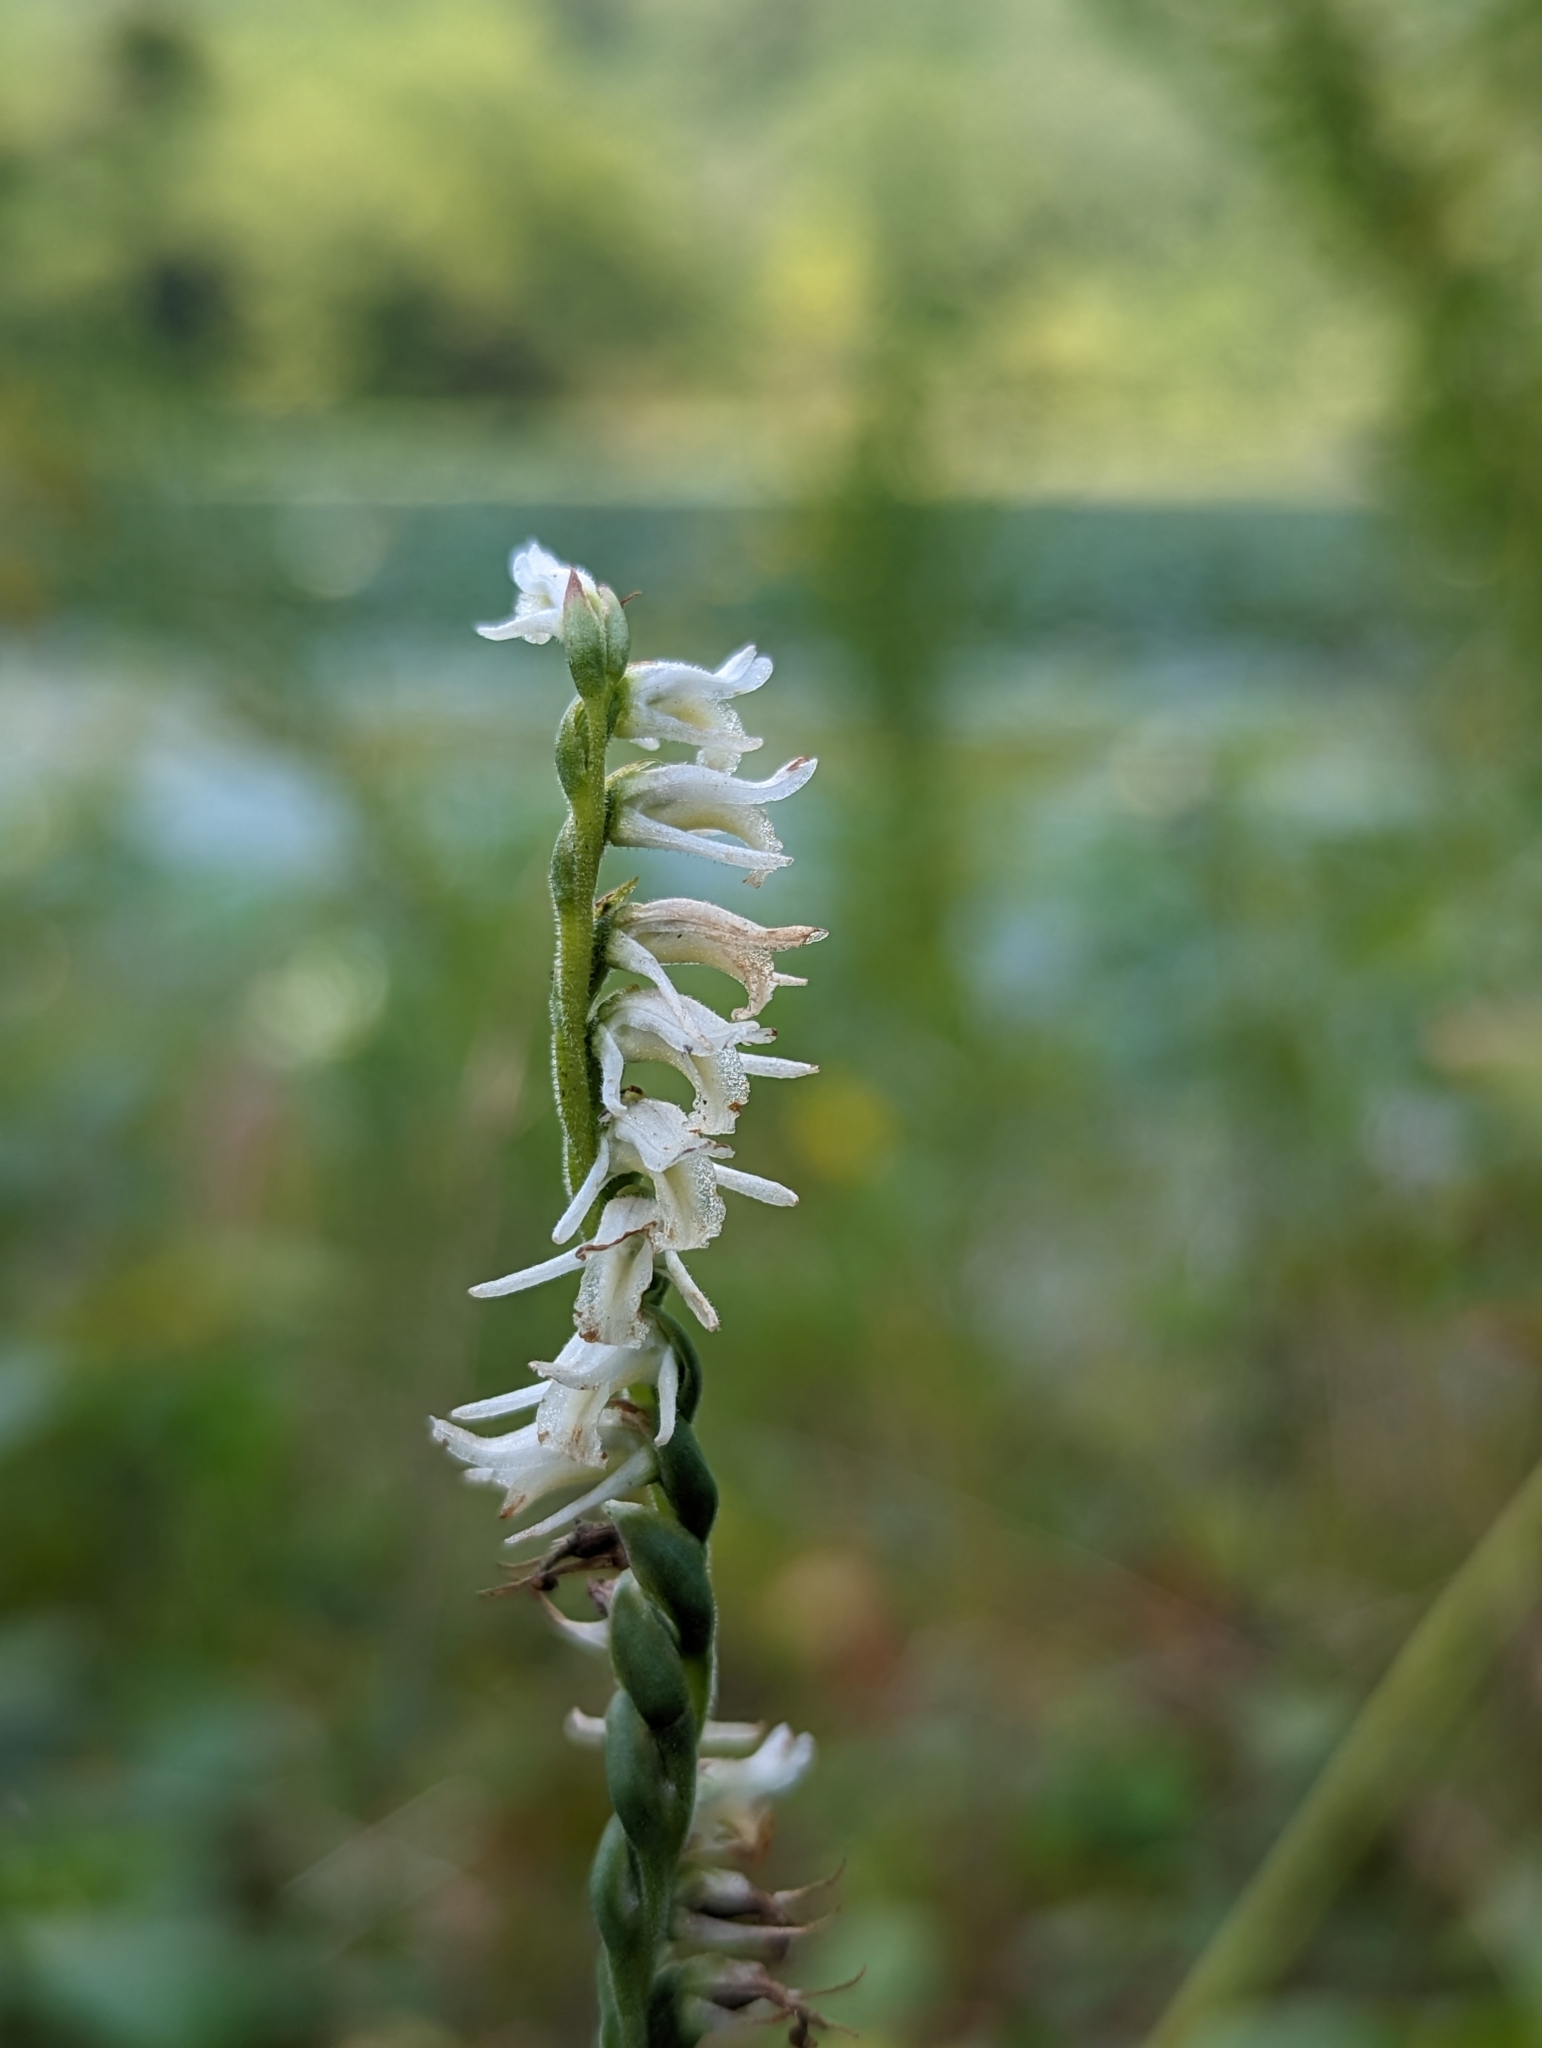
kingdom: Plantae
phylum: Tracheophyta
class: Liliopsida
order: Asparagales
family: Orchidaceae
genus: Spiranthes
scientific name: Spiranthes vernalis
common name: Spring ladies'-tresses
